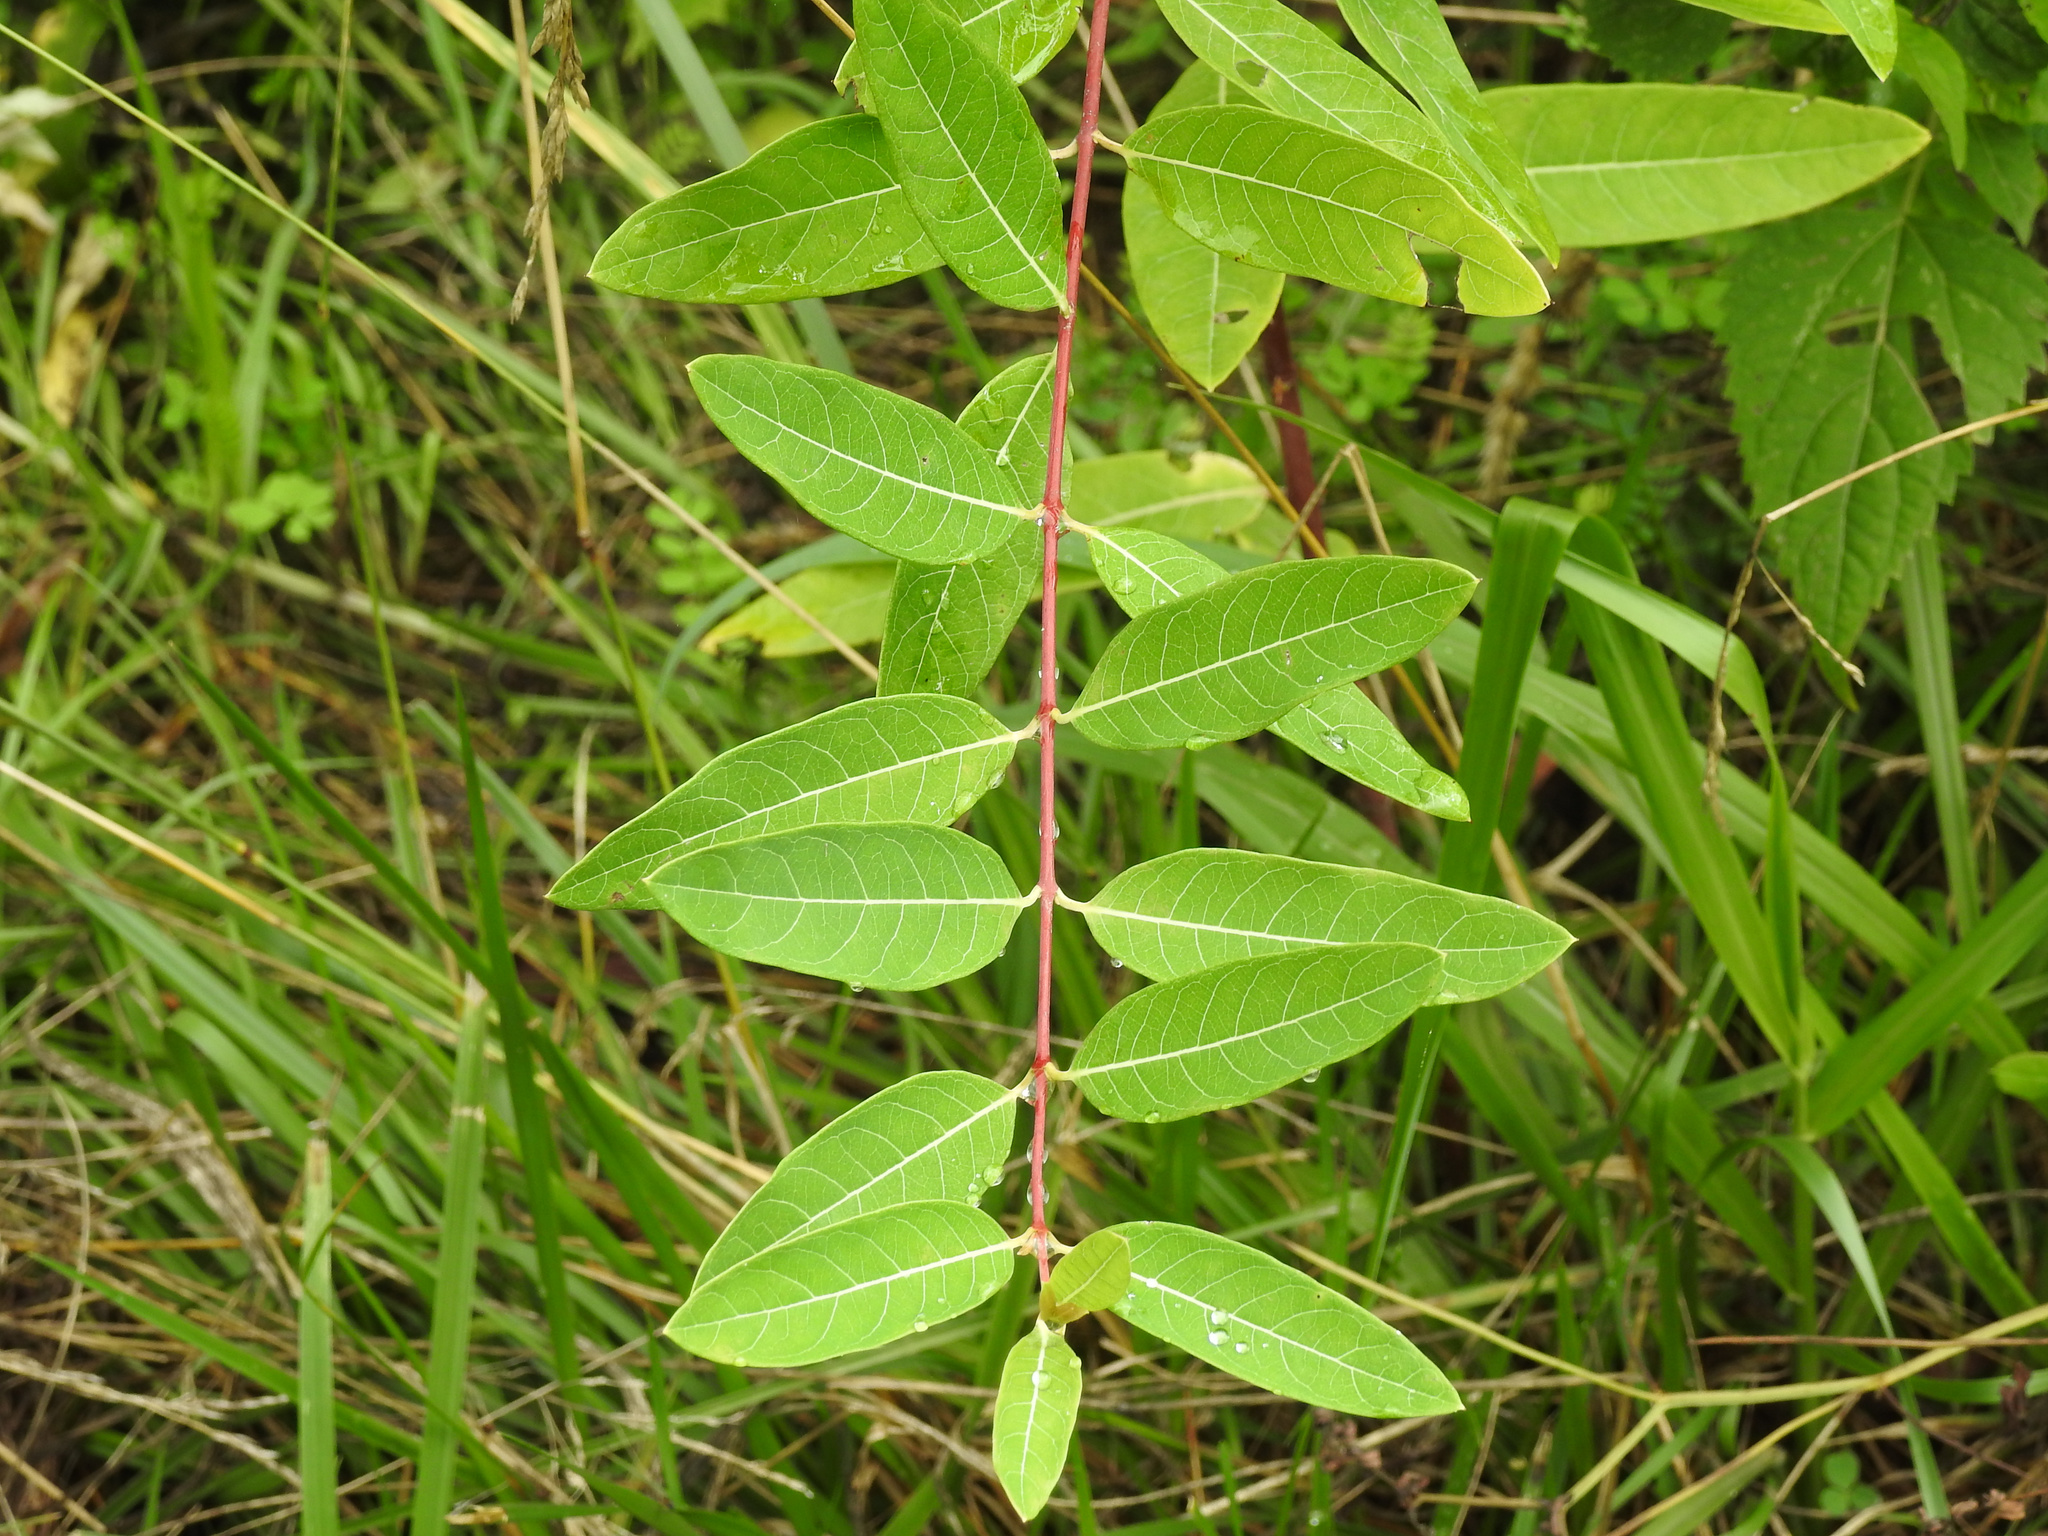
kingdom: Plantae
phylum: Tracheophyta
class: Magnoliopsida
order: Gentianales
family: Apocynaceae
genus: Apocynum
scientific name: Apocynum cannabinum
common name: Hemp dogbane
